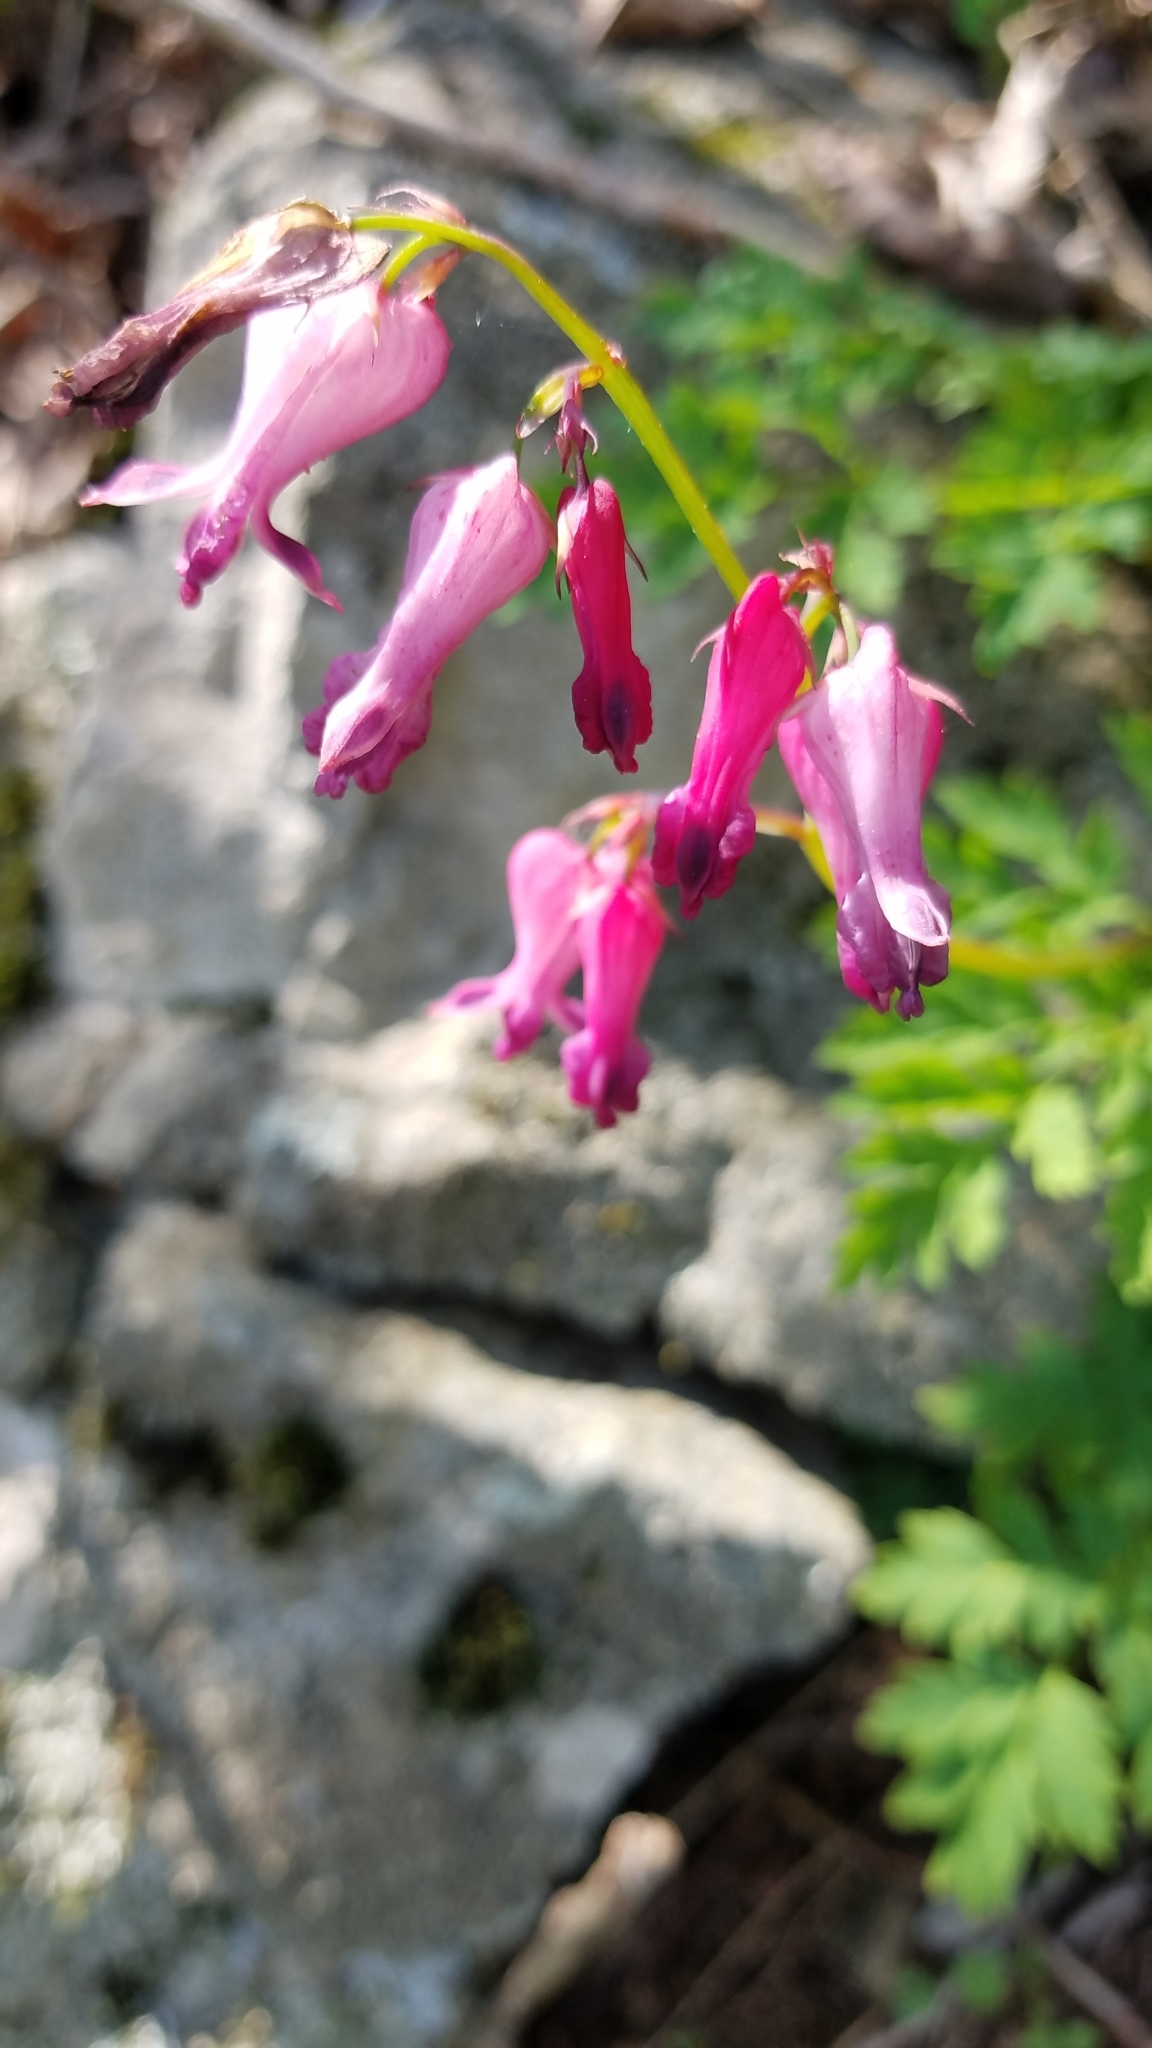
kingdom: Plantae
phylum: Tracheophyta
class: Magnoliopsida
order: Ranunculales
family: Papaveraceae
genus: Dicentra
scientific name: Dicentra eximia
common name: Turkey-corn
